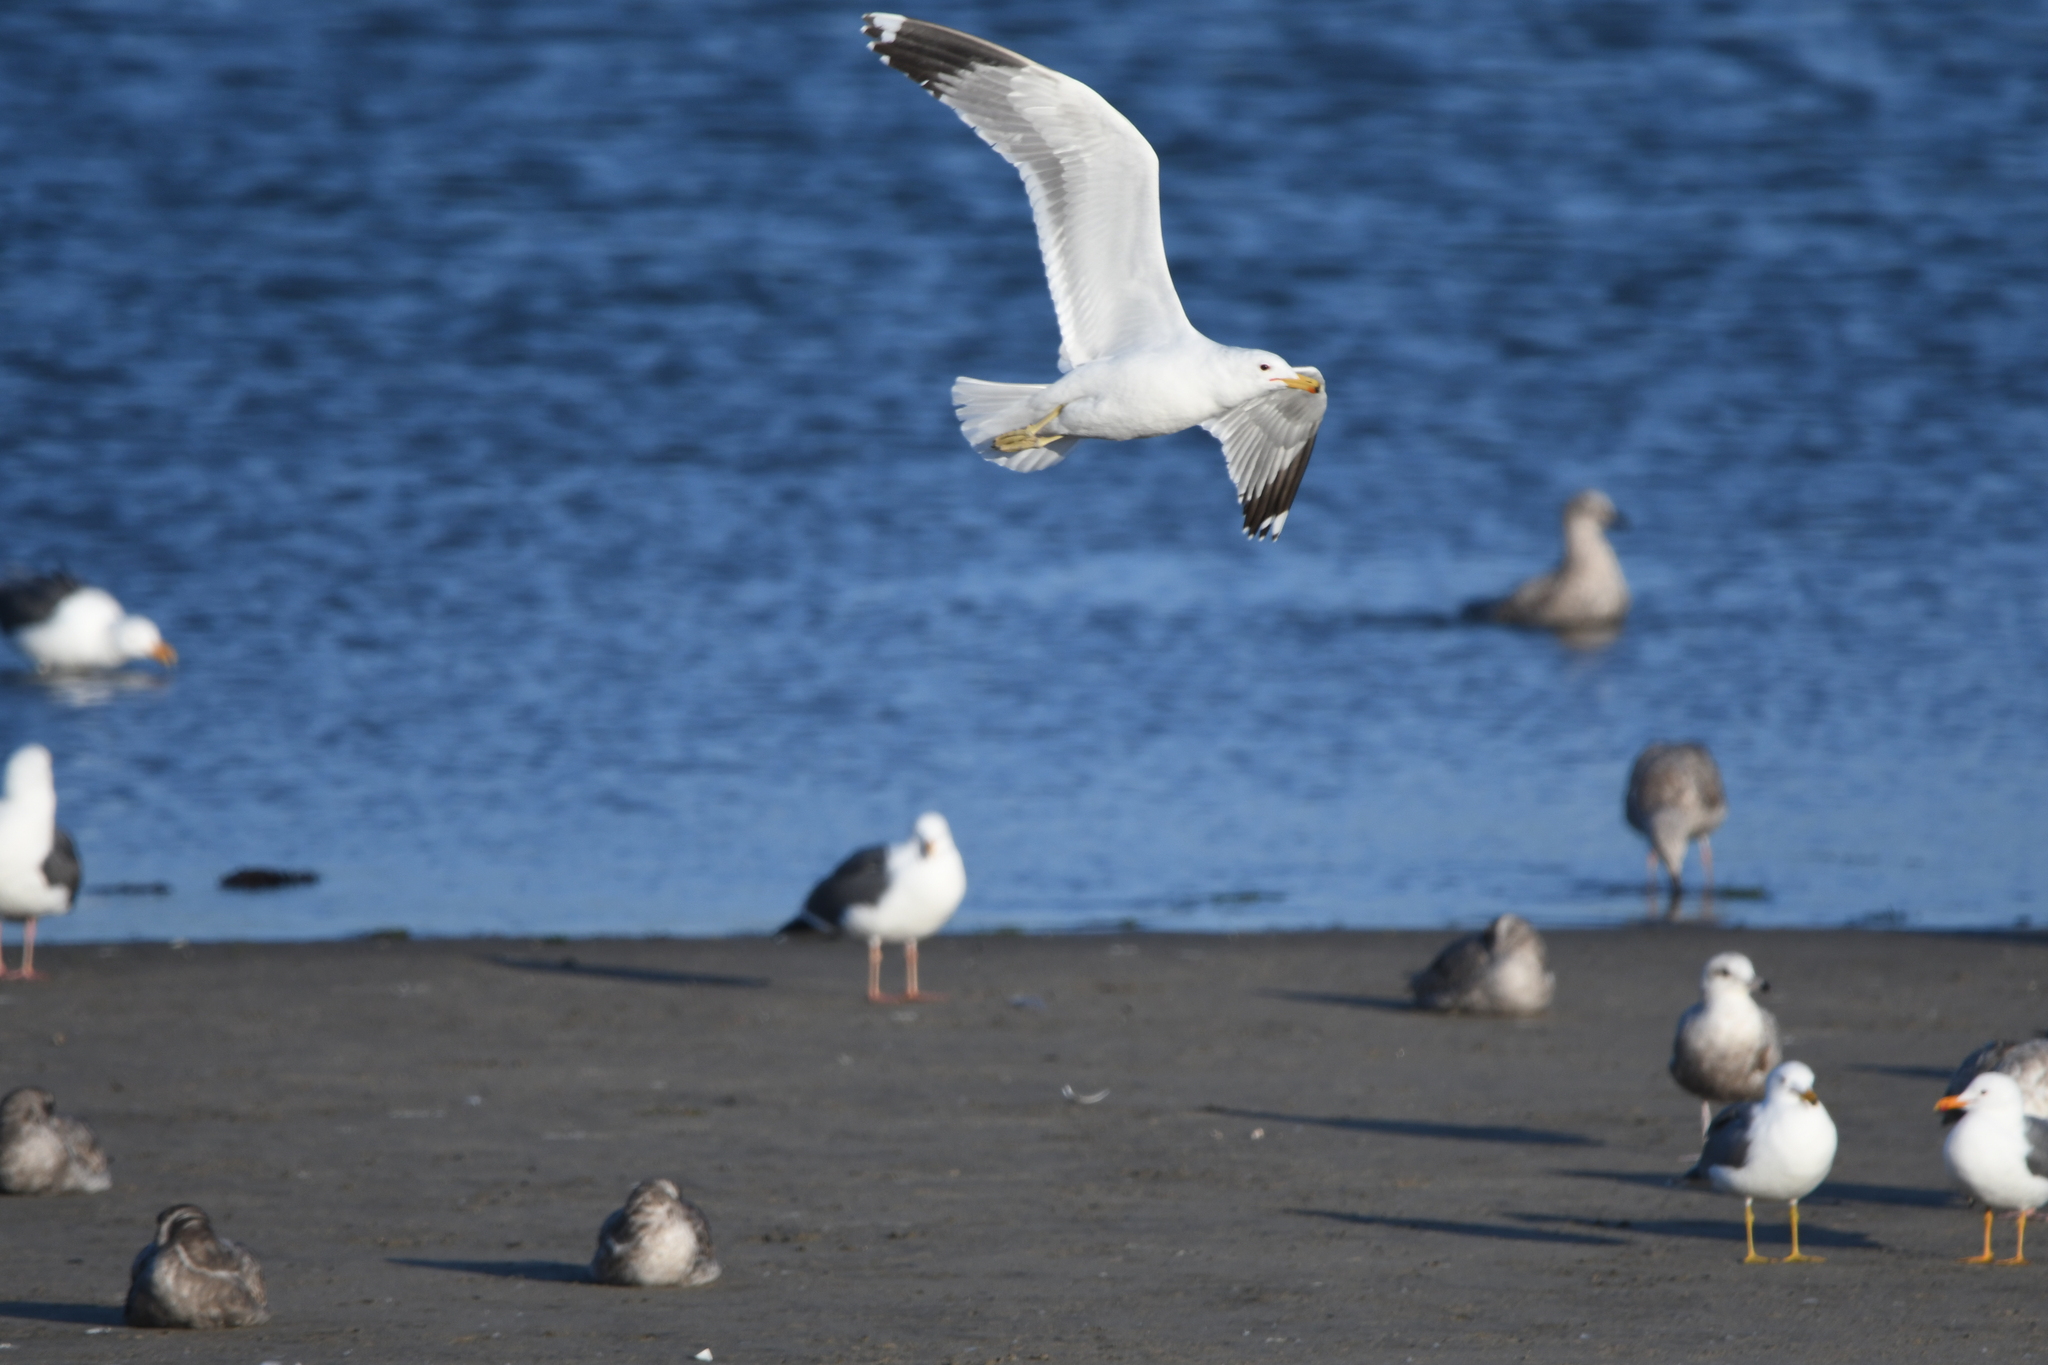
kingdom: Animalia
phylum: Chordata
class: Aves
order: Charadriiformes
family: Laridae
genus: Larus
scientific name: Larus californicus
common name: California gull
